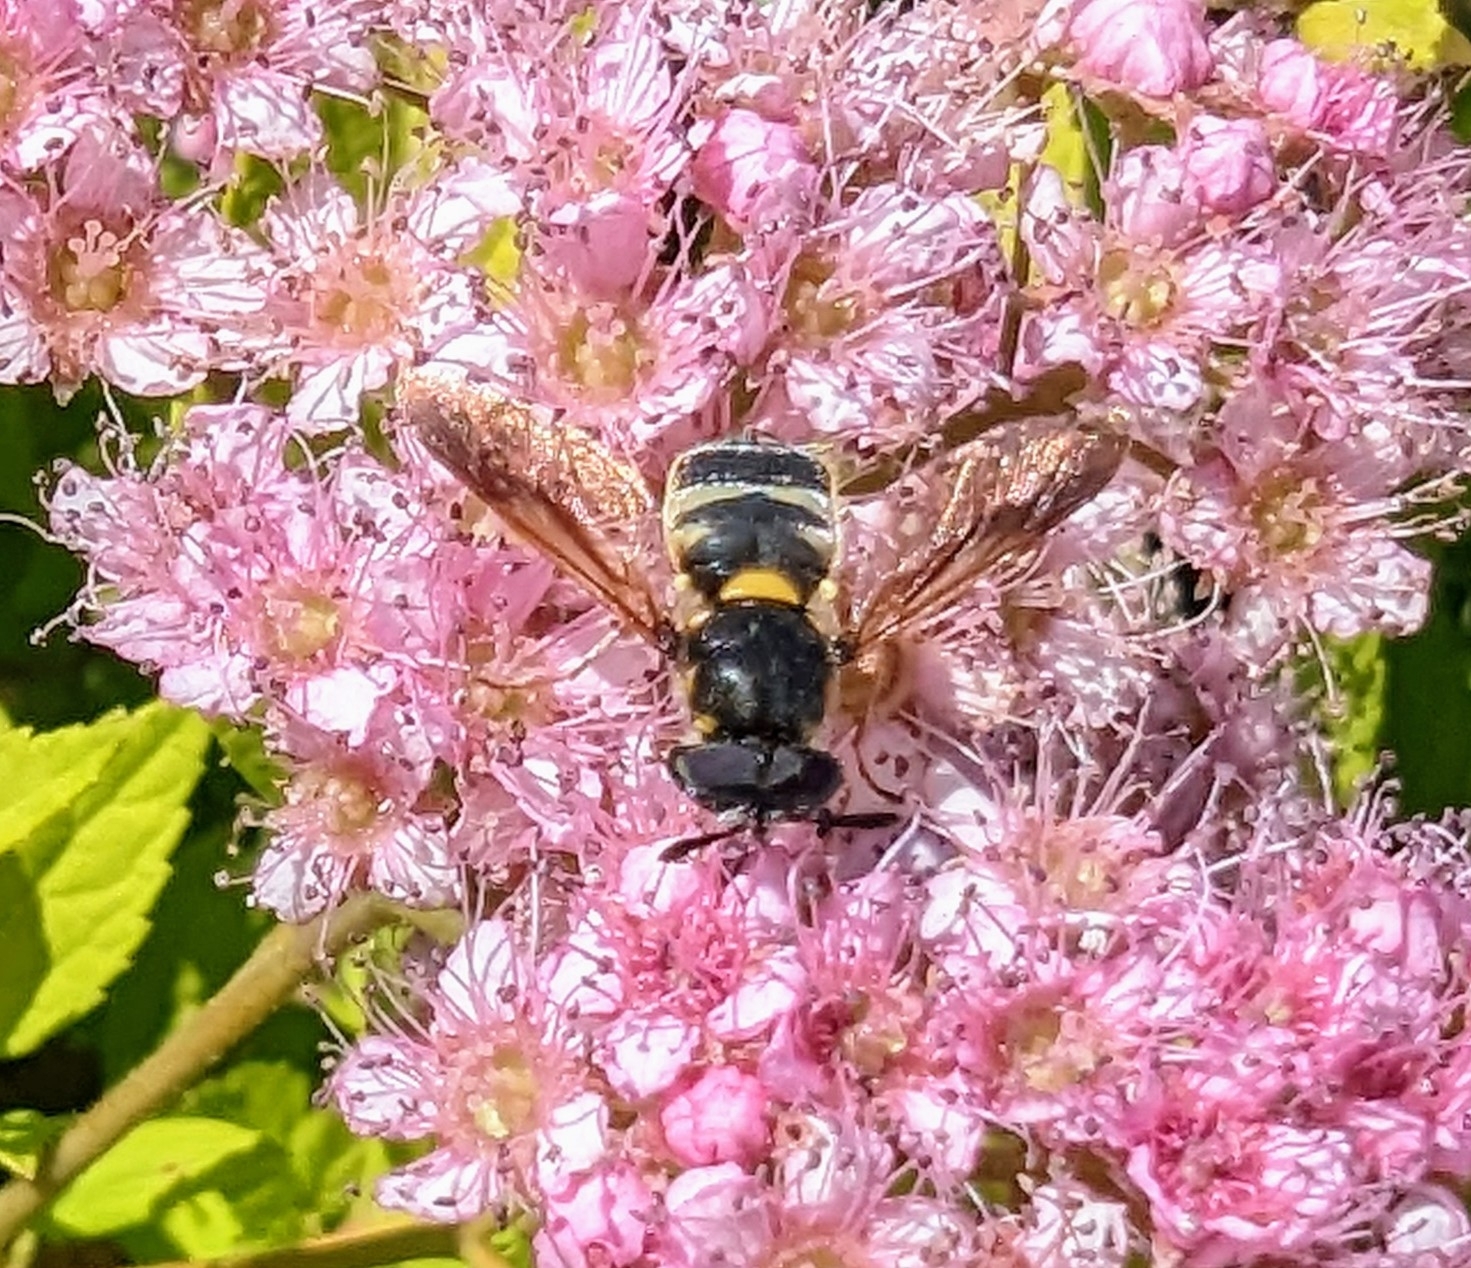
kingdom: Animalia
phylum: Arthropoda
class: Insecta
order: Diptera
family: Stratiomyidae
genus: Hoplitimyia
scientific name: Hoplitimyia constans
